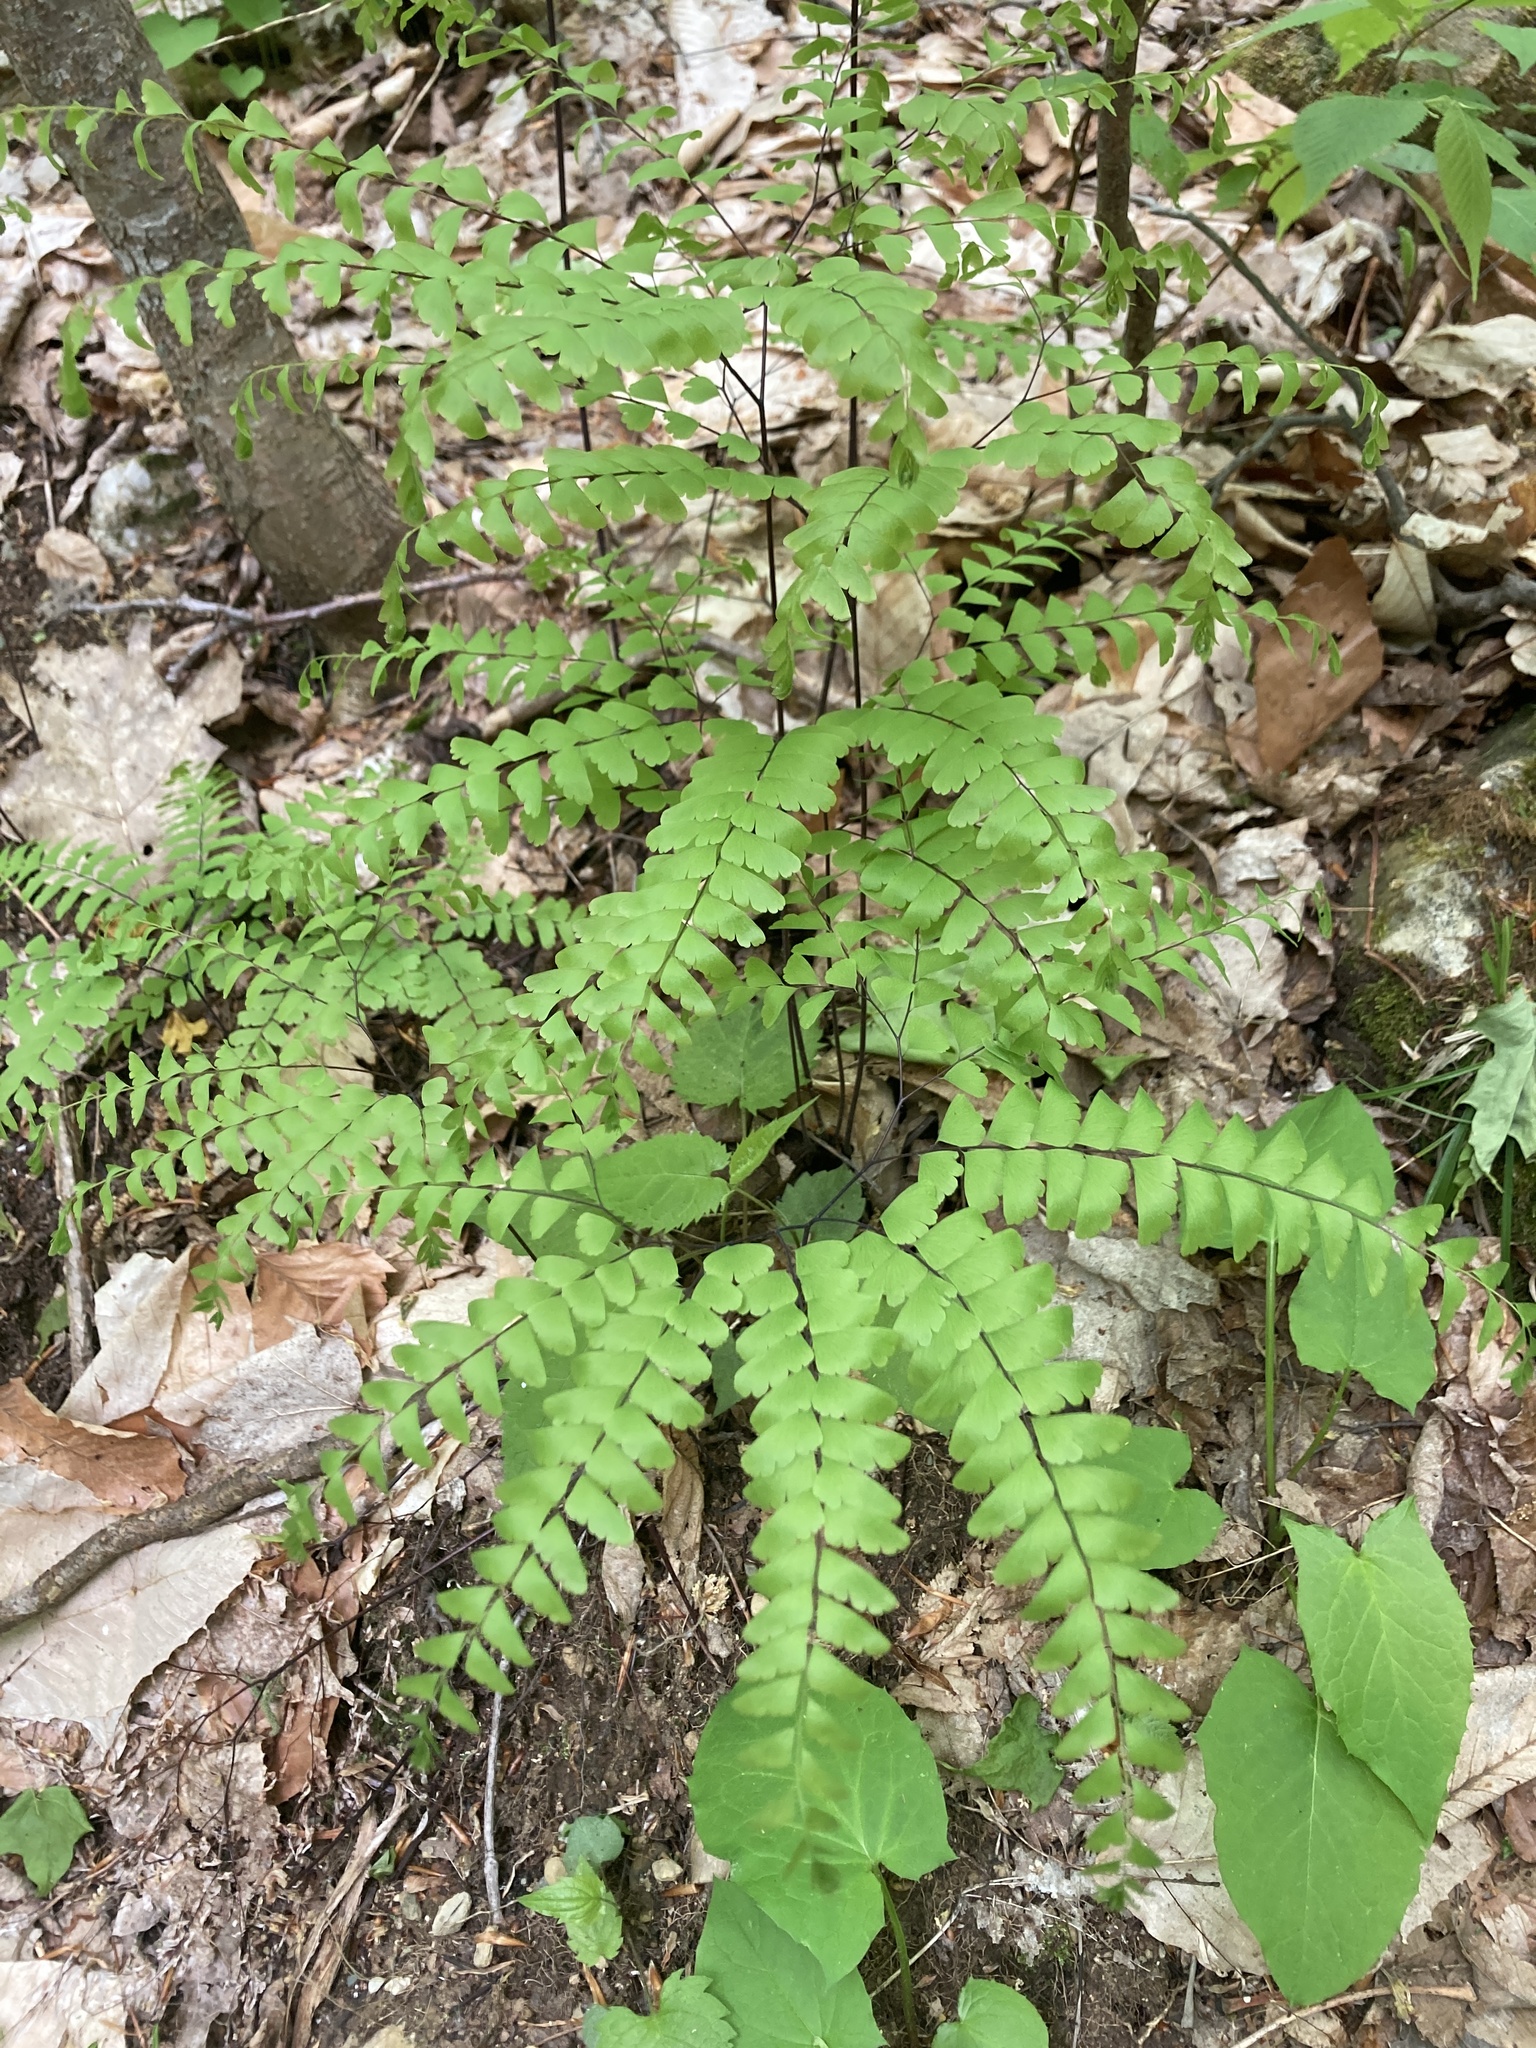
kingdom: Plantae
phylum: Tracheophyta
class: Polypodiopsida
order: Polypodiales
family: Pteridaceae
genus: Adiantum
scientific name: Adiantum pedatum
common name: Five-finger fern
